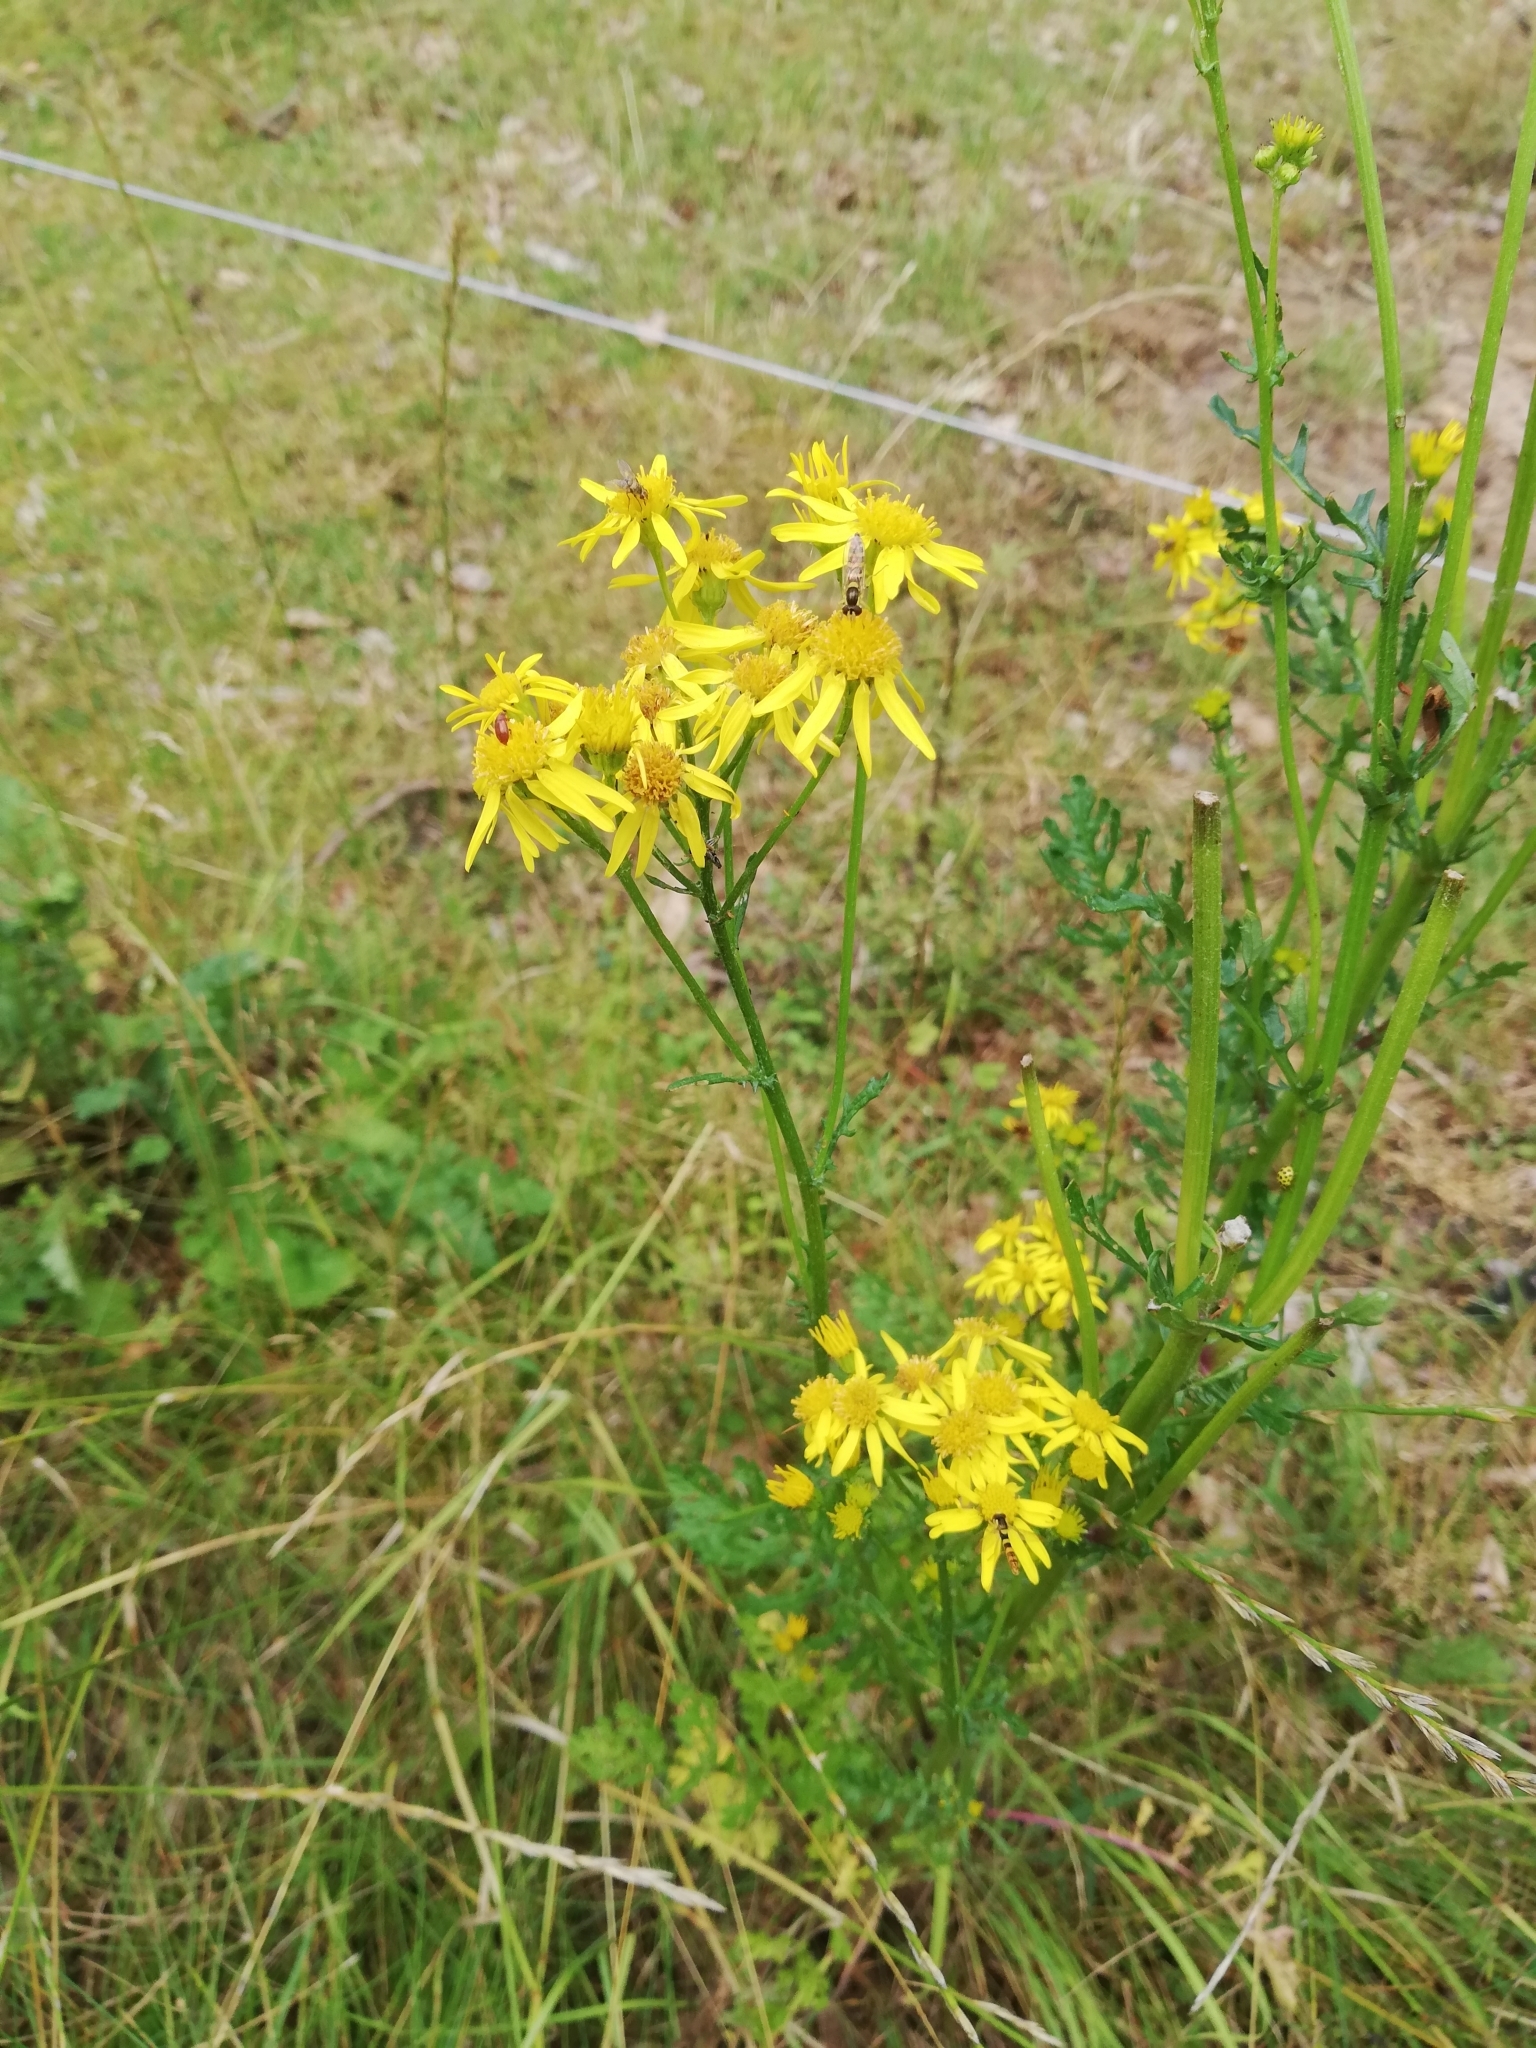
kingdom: Plantae
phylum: Tracheophyta
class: Magnoliopsida
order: Asterales
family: Asteraceae
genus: Jacobaea
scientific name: Jacobaea vulgaris
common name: Stinking willie
